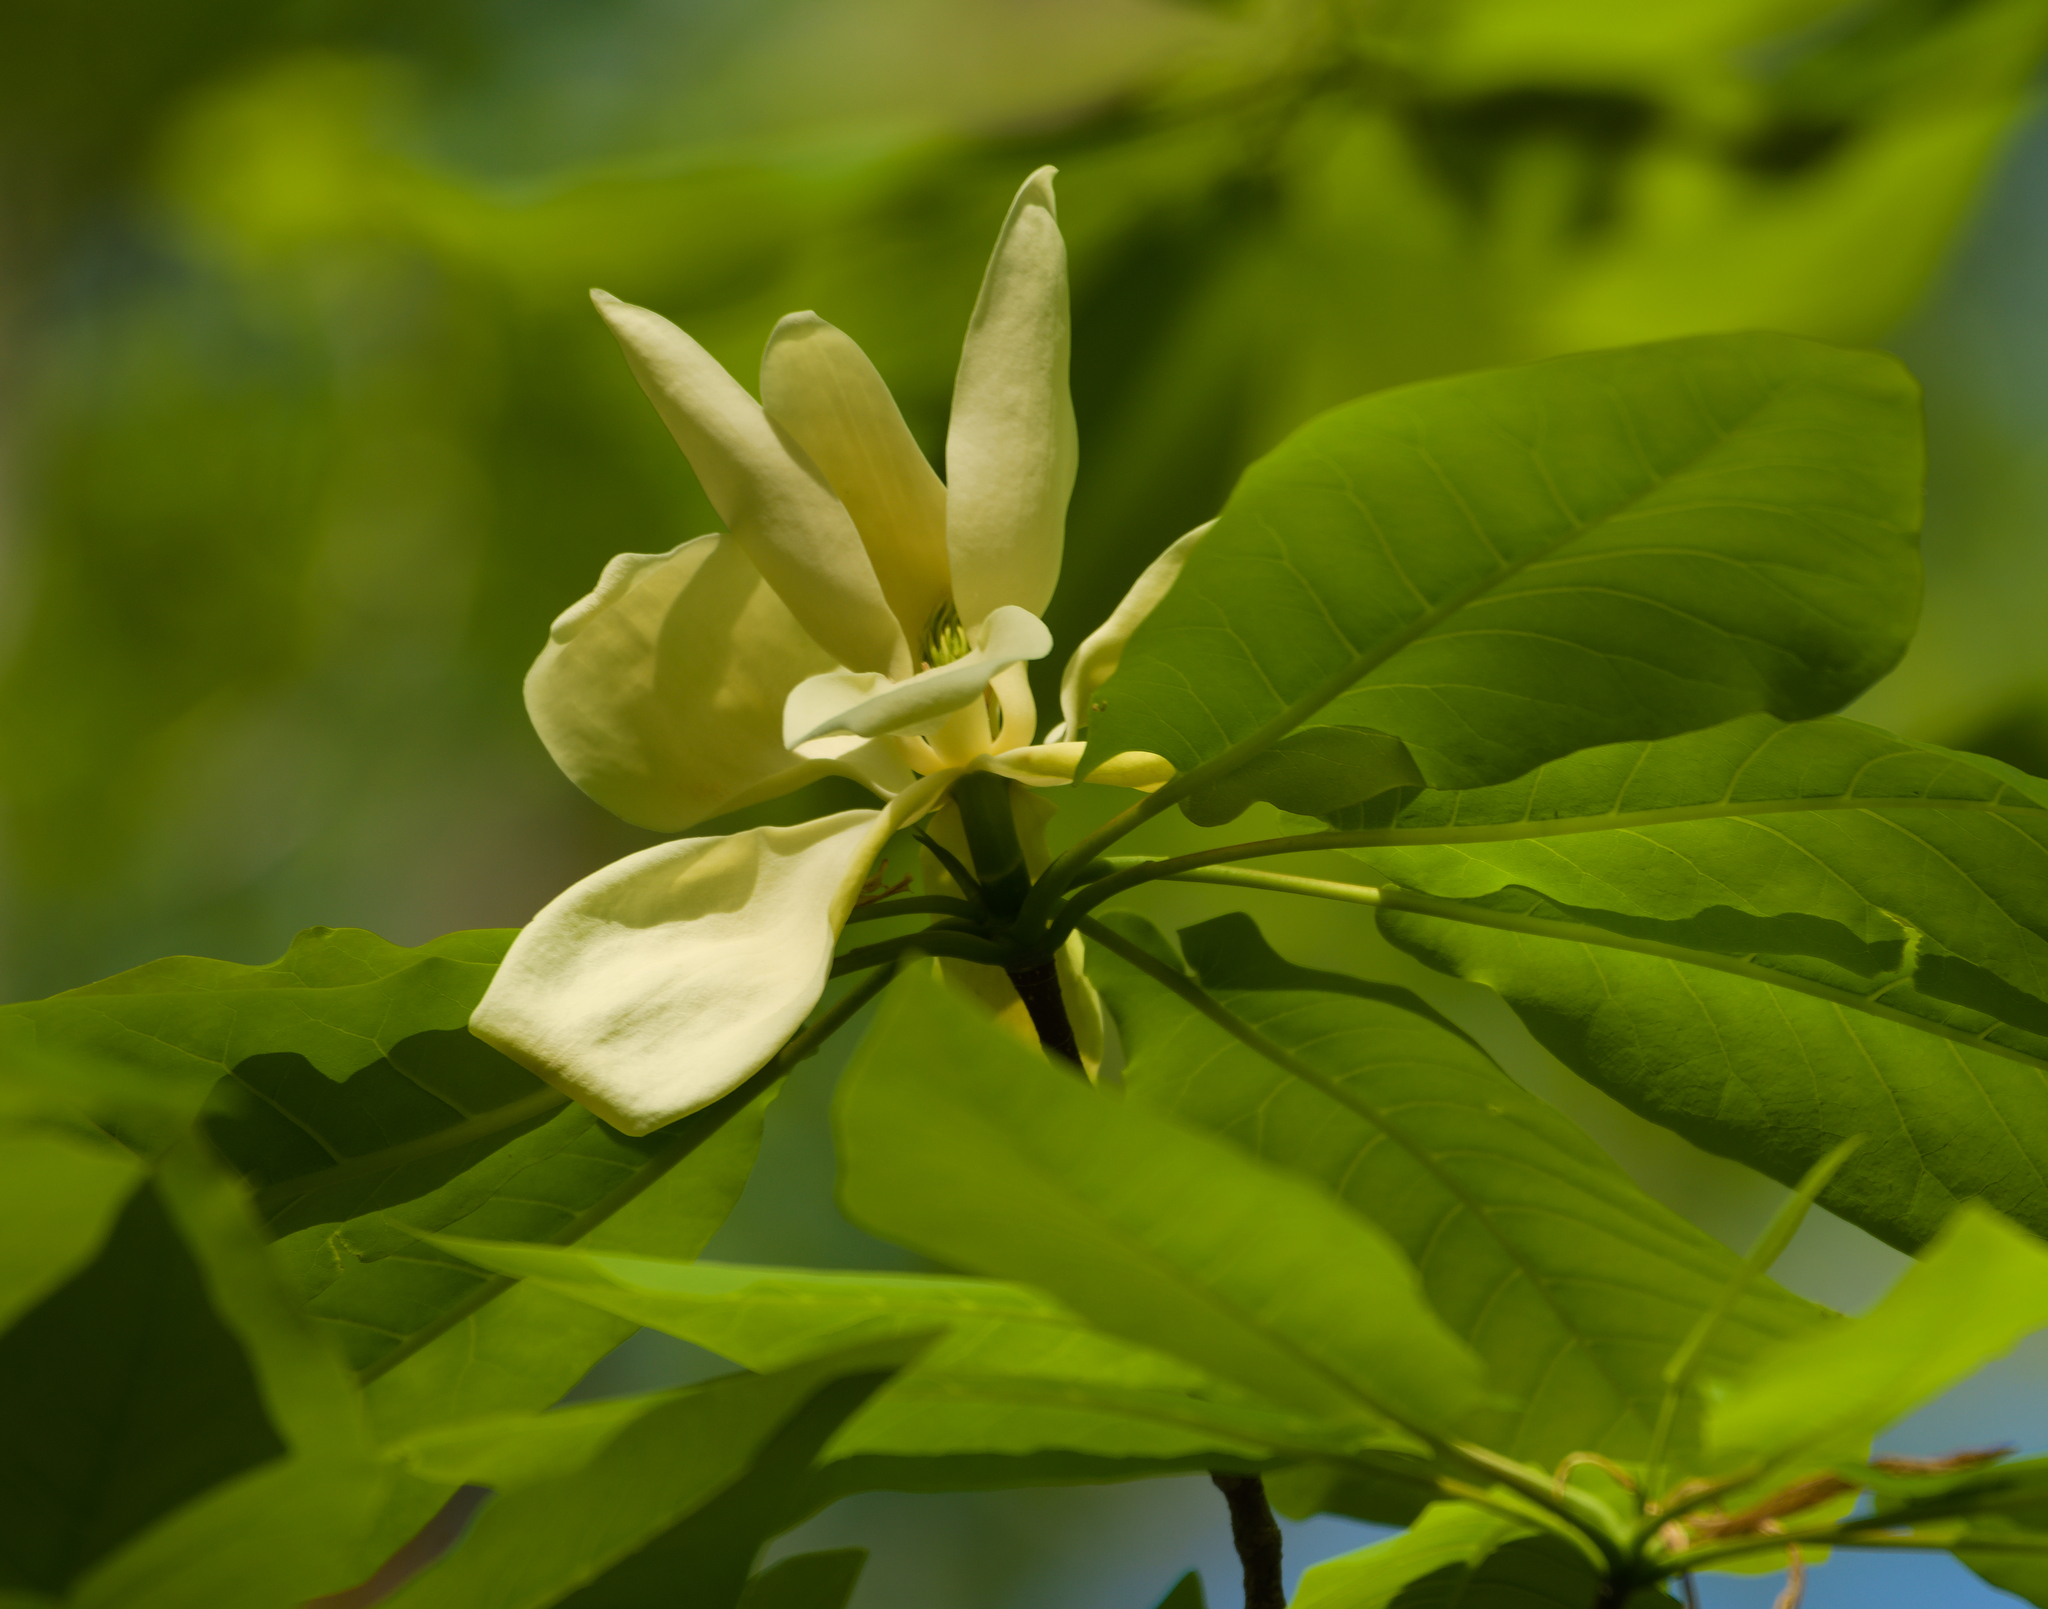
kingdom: Plantae
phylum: Tracheophyta
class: Magnoliopsida
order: Magnoliales
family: Magnoliaceae
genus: Magnolia
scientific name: Magnolia fraseri
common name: Fraser's magnolia
